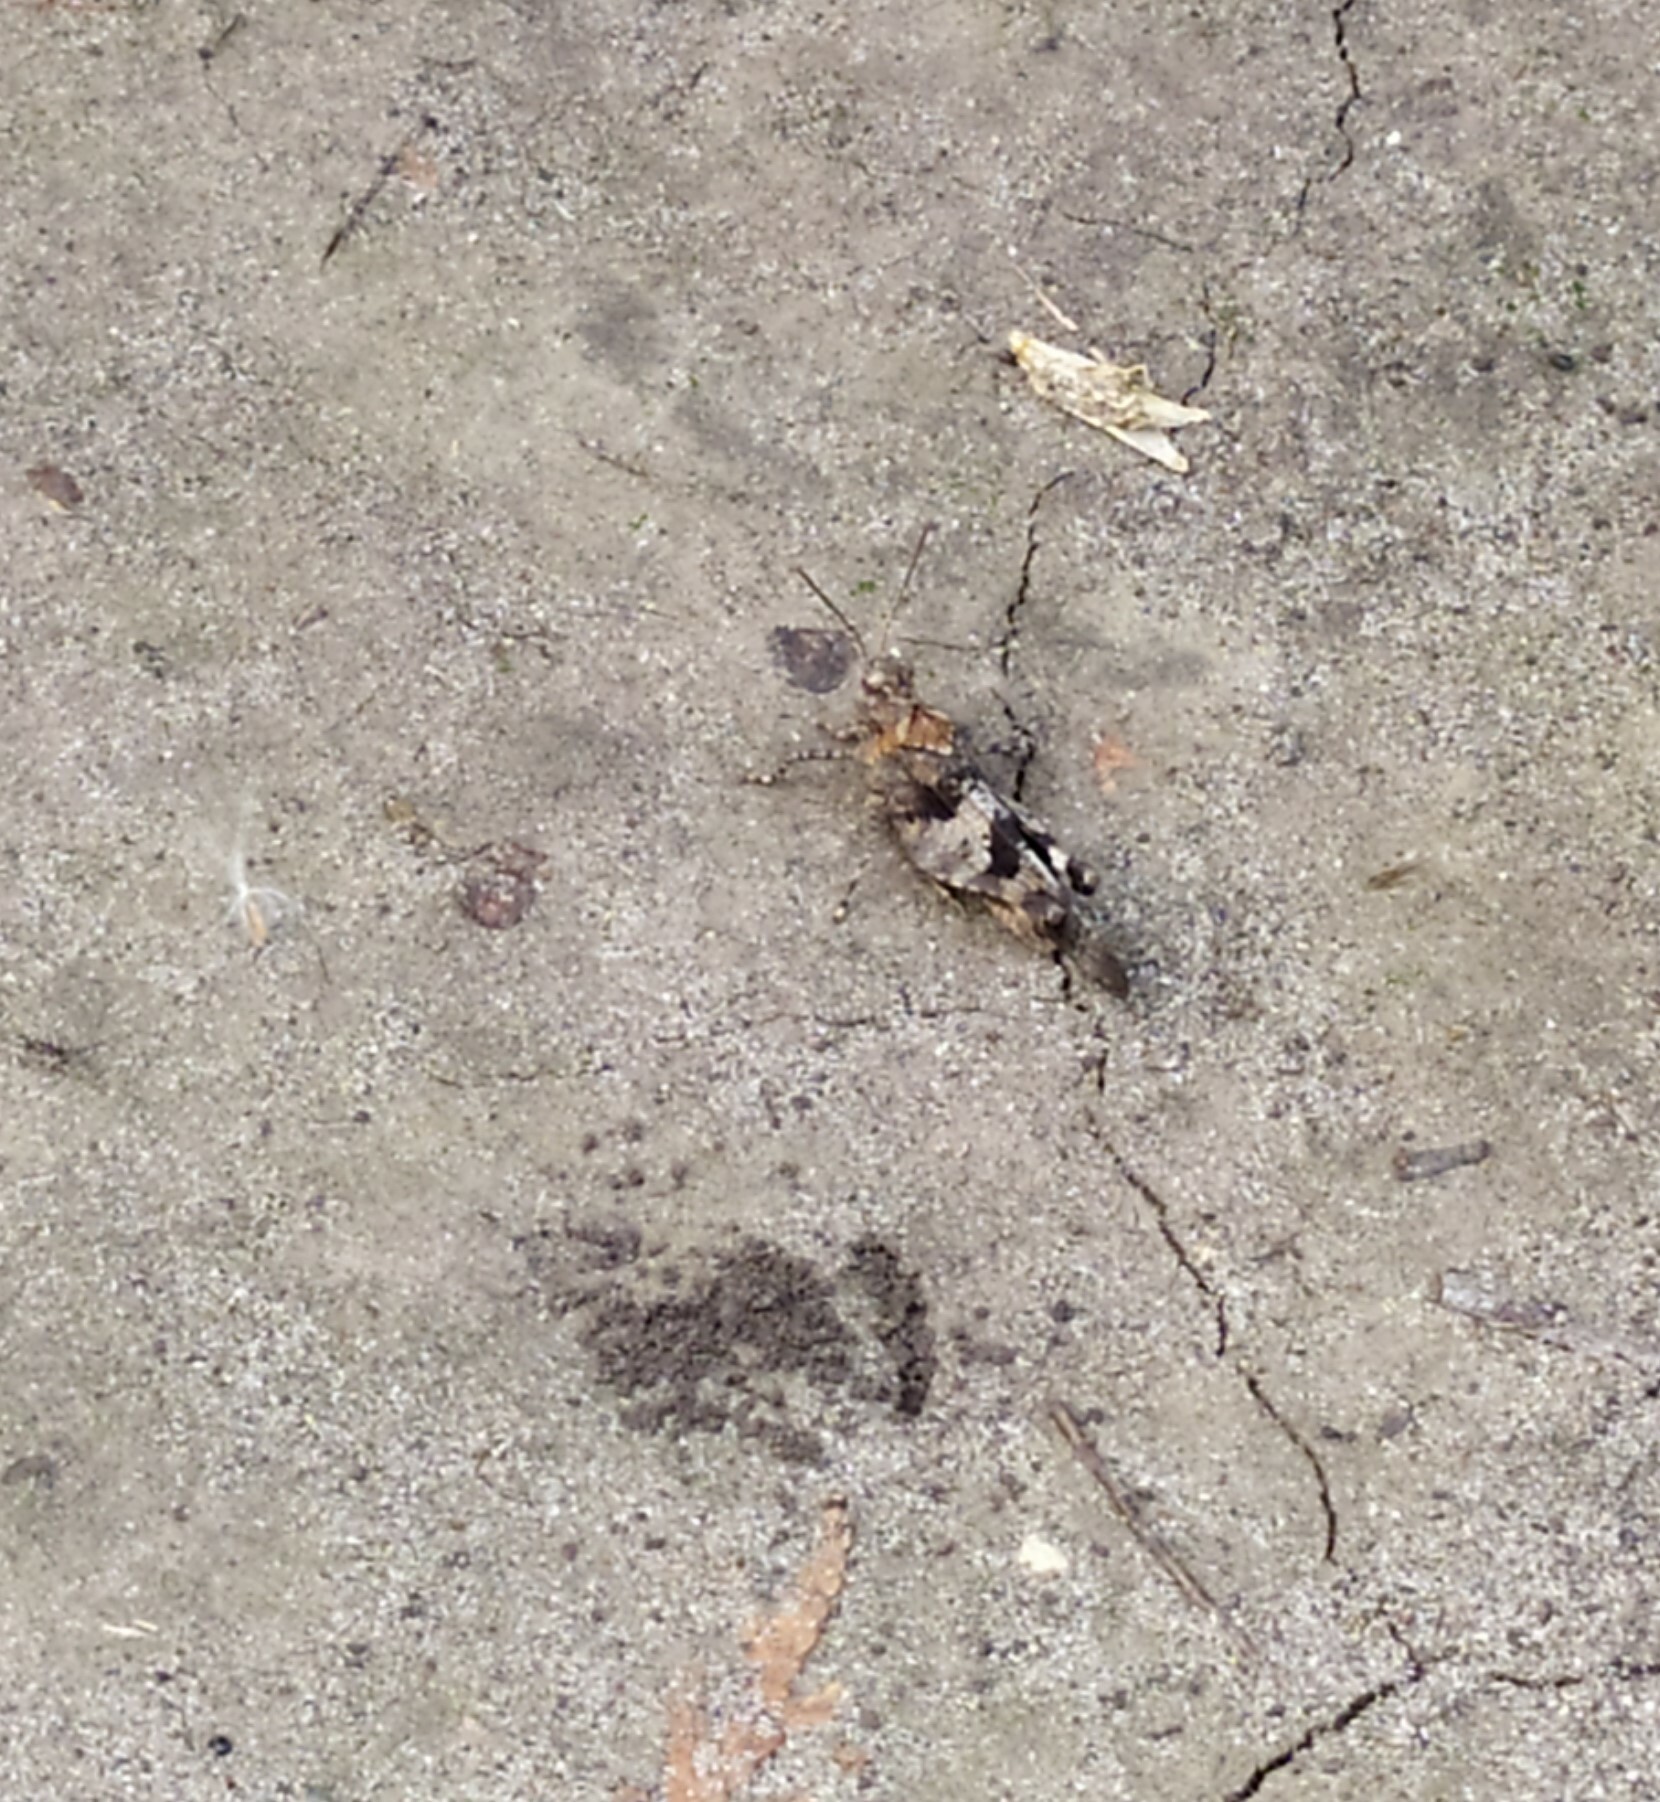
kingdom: Animalia
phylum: Arthropoda
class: Insecta
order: Orthoptera
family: Acrididae
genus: Oedipoda
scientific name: Oedipoda caerulescens
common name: Blue-winged grasshopper
